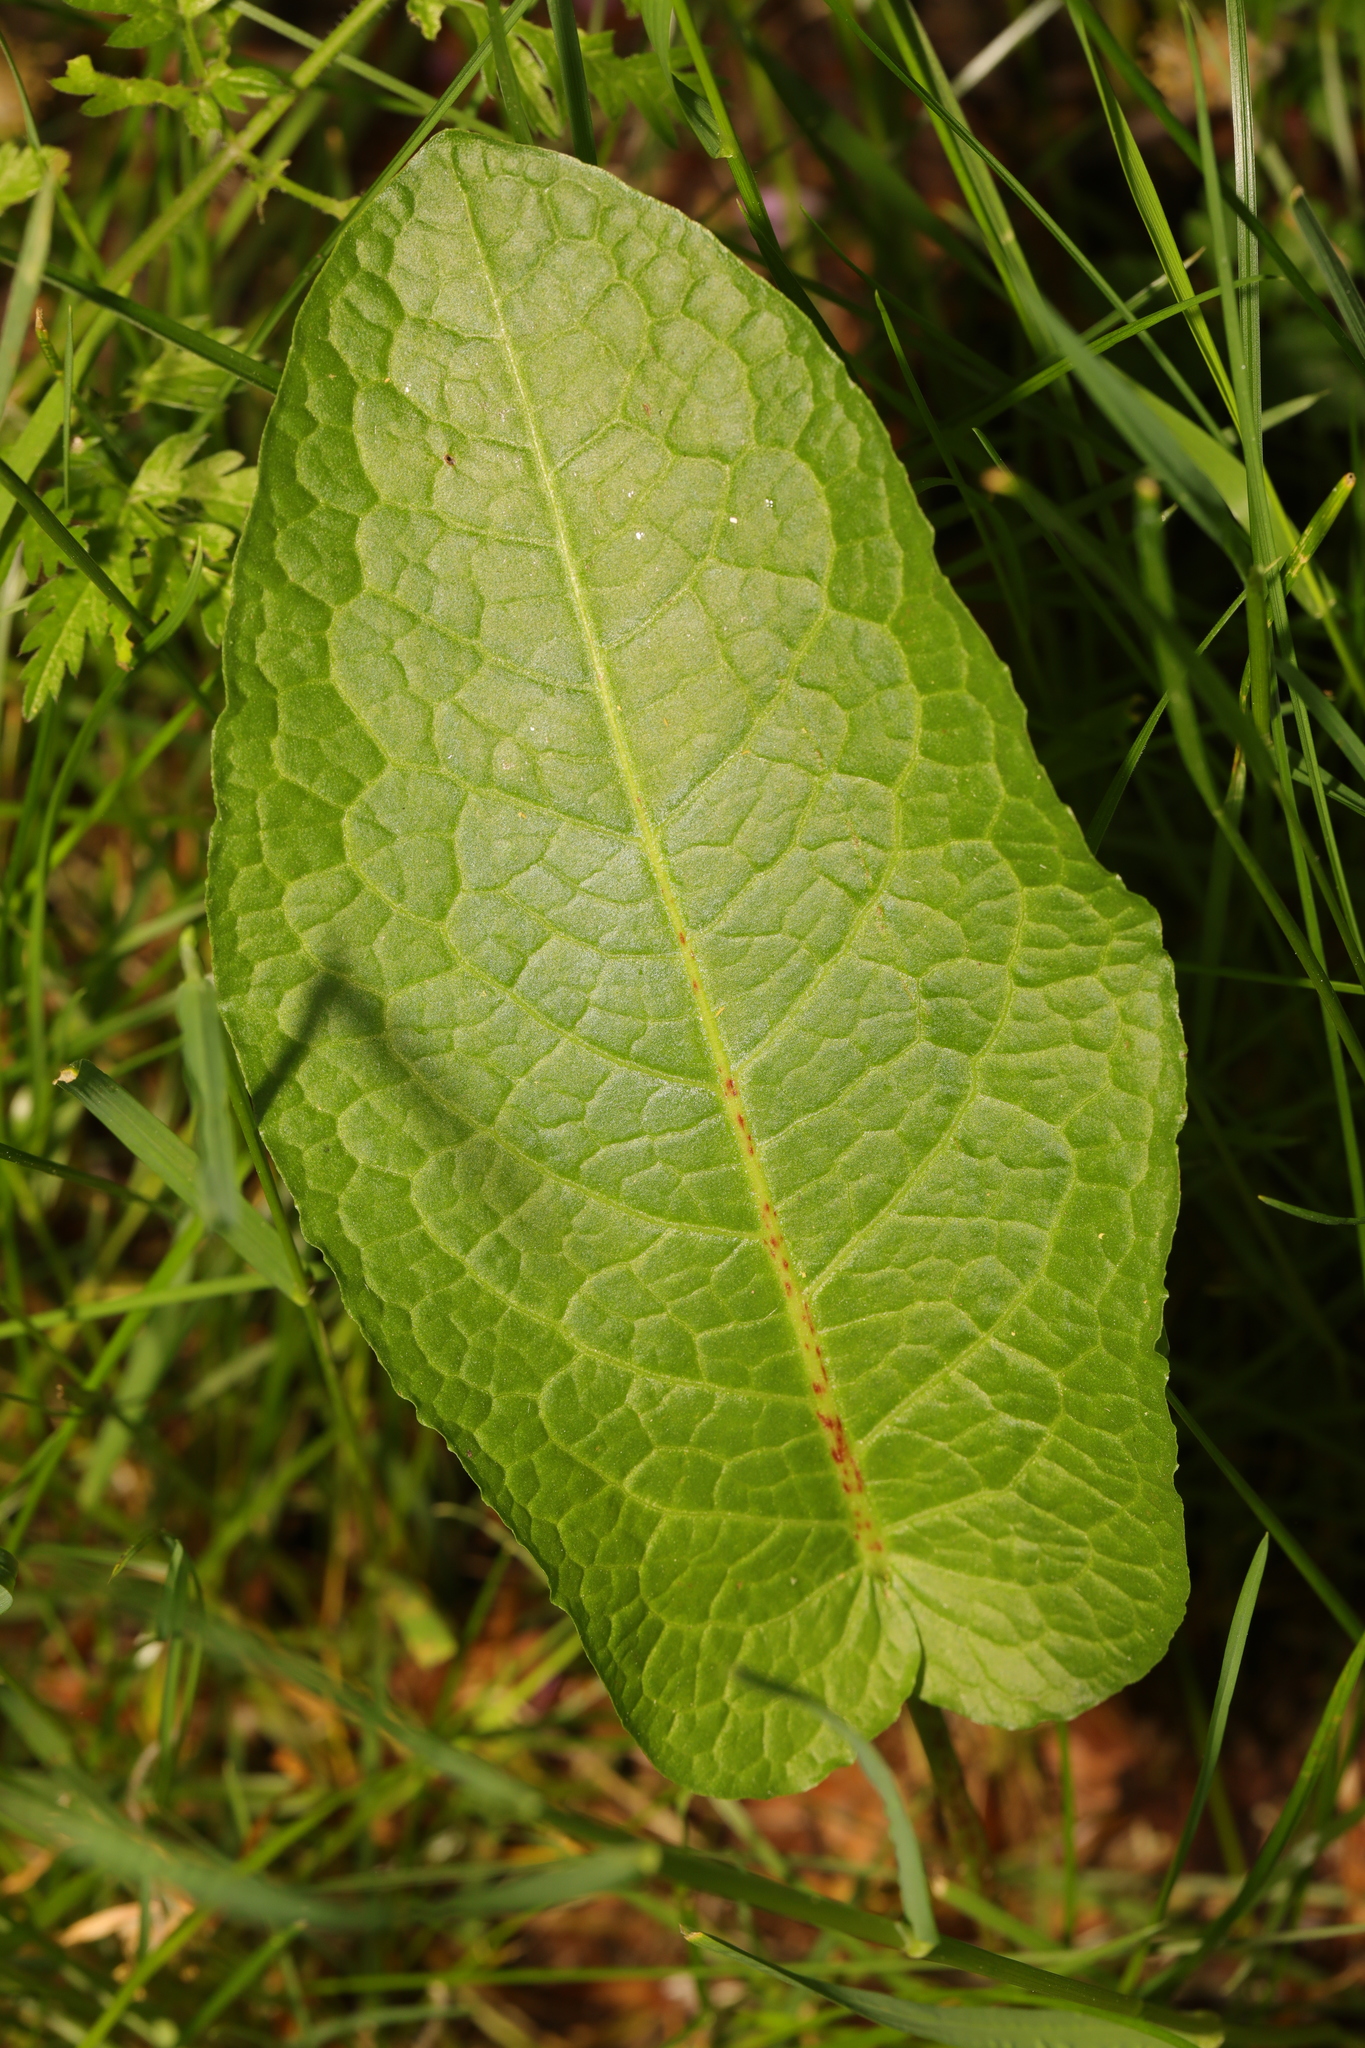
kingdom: Plantae
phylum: Tracheophyta
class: Magnoliopsida
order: Caryophyllales
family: Polygonaceae
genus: Rumex
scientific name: Rumex obtusifolius
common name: Bitter dock
